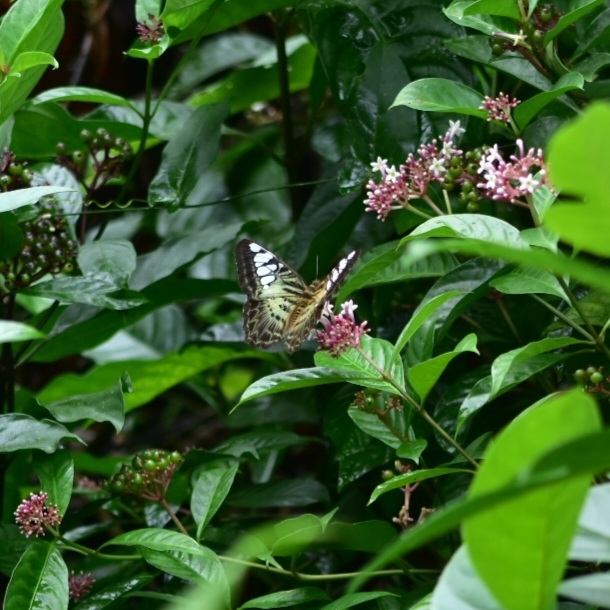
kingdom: Animalia
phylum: Arthropoda
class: Insecta
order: Lepidoptera
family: Nymphalidae
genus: Kallima
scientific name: Kallima sylvia
